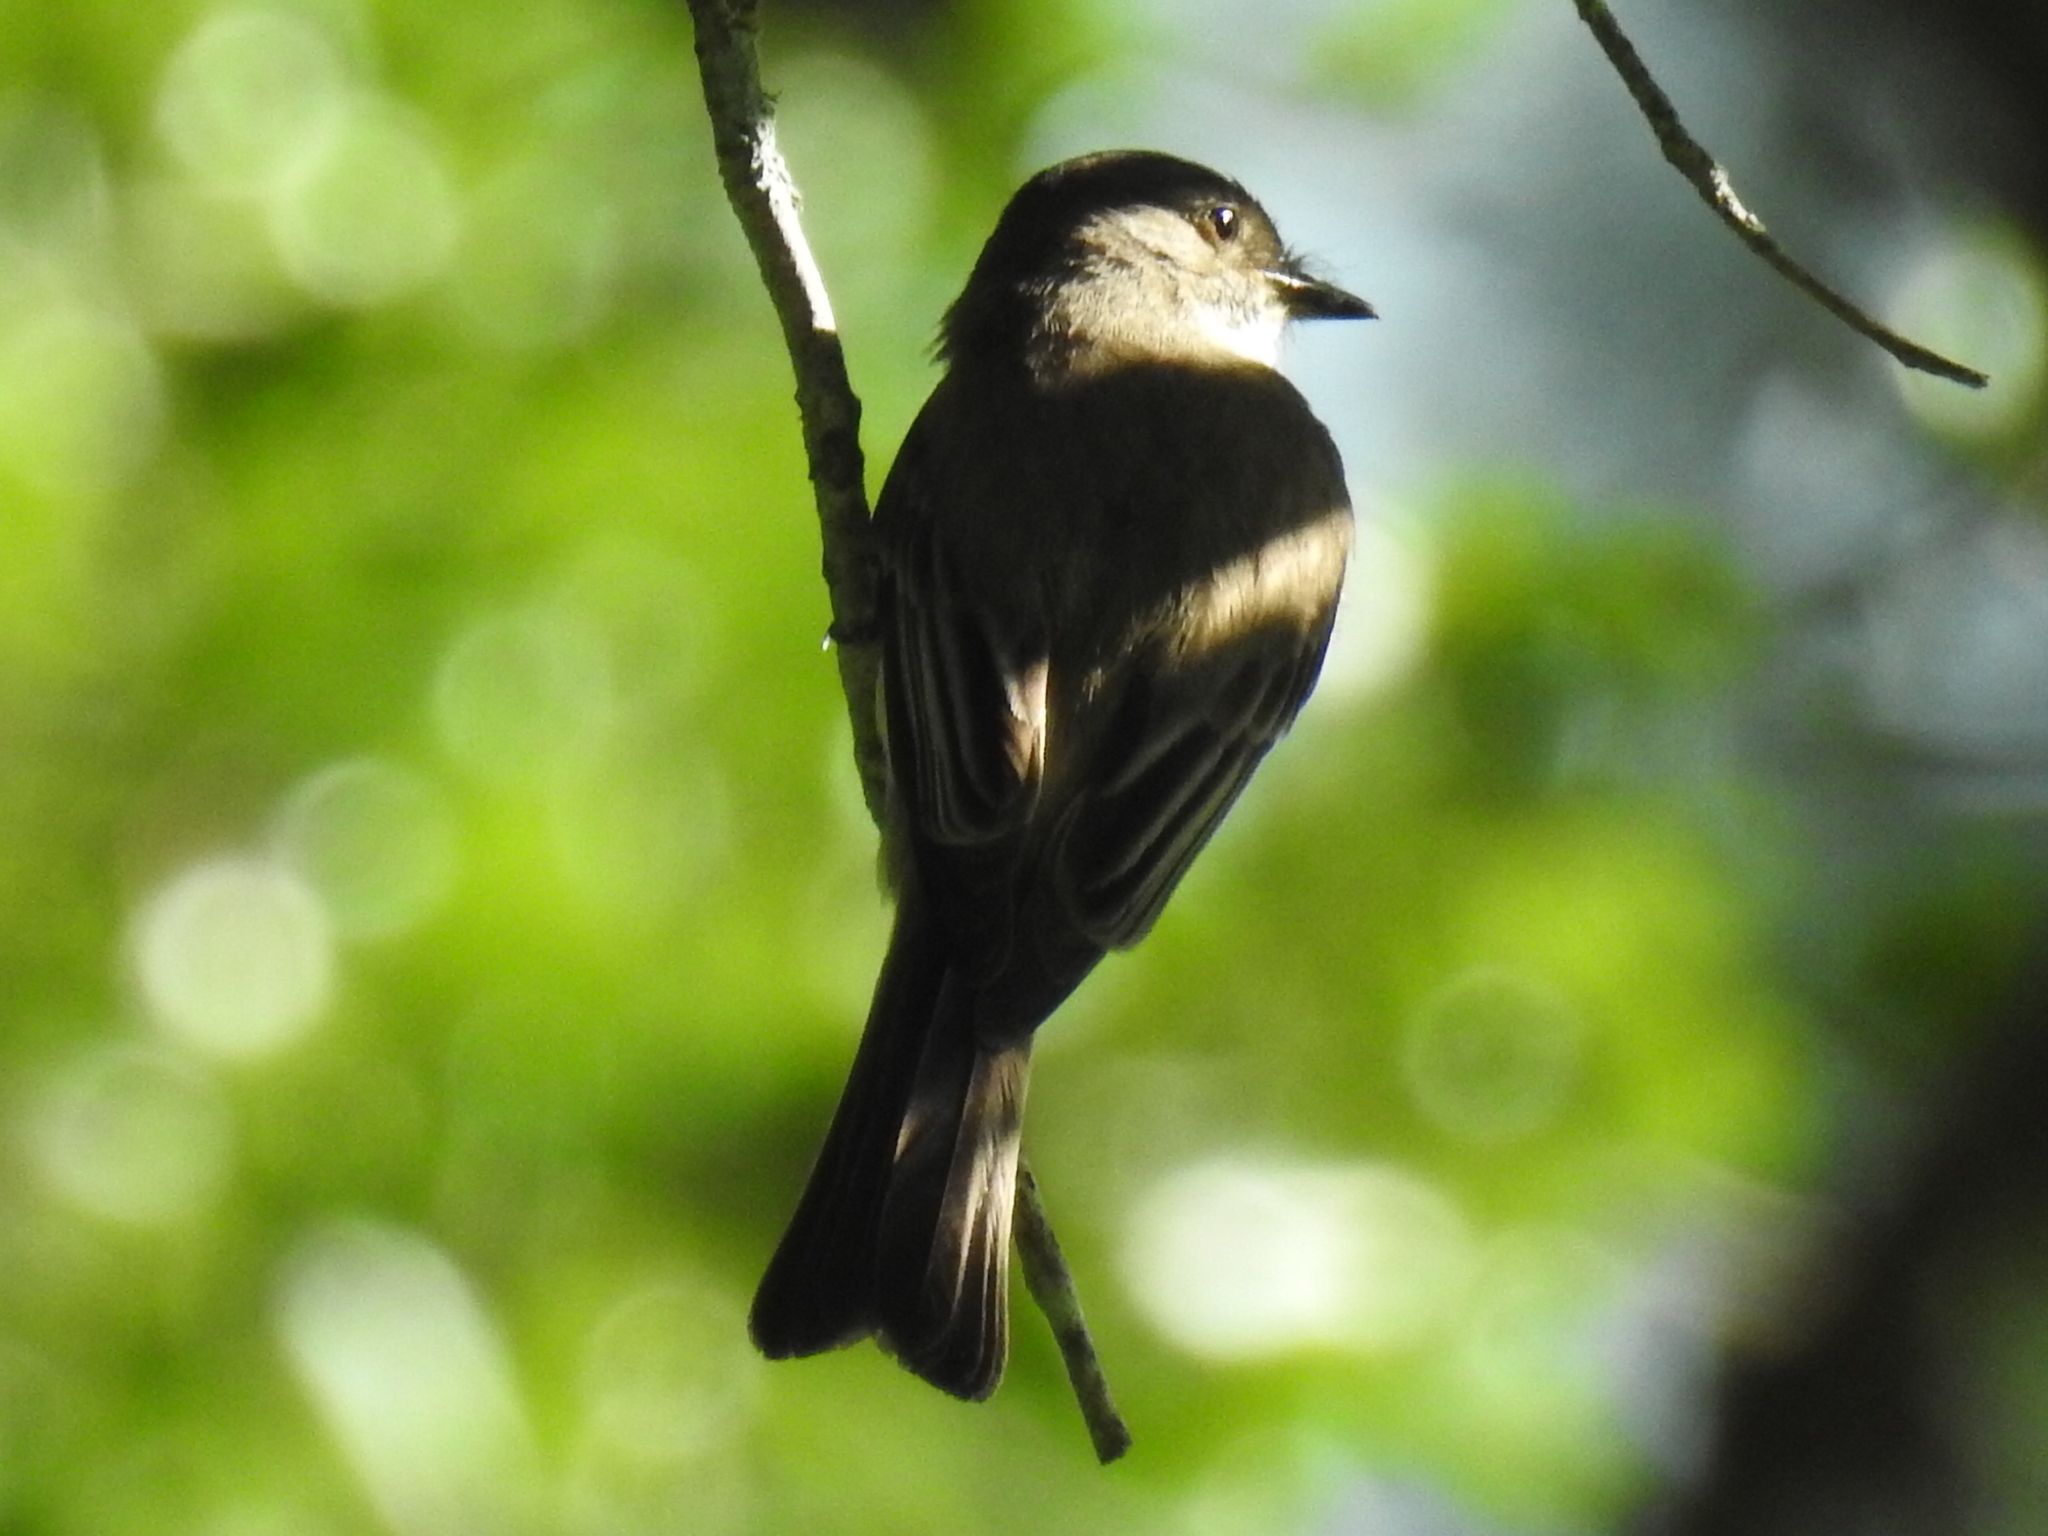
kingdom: Animalia
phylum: Chordata
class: Aves
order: Passeriformes
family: Tyrannidae
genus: Sayornis
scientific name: Sayornis phoebe
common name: Eastern phoebe
